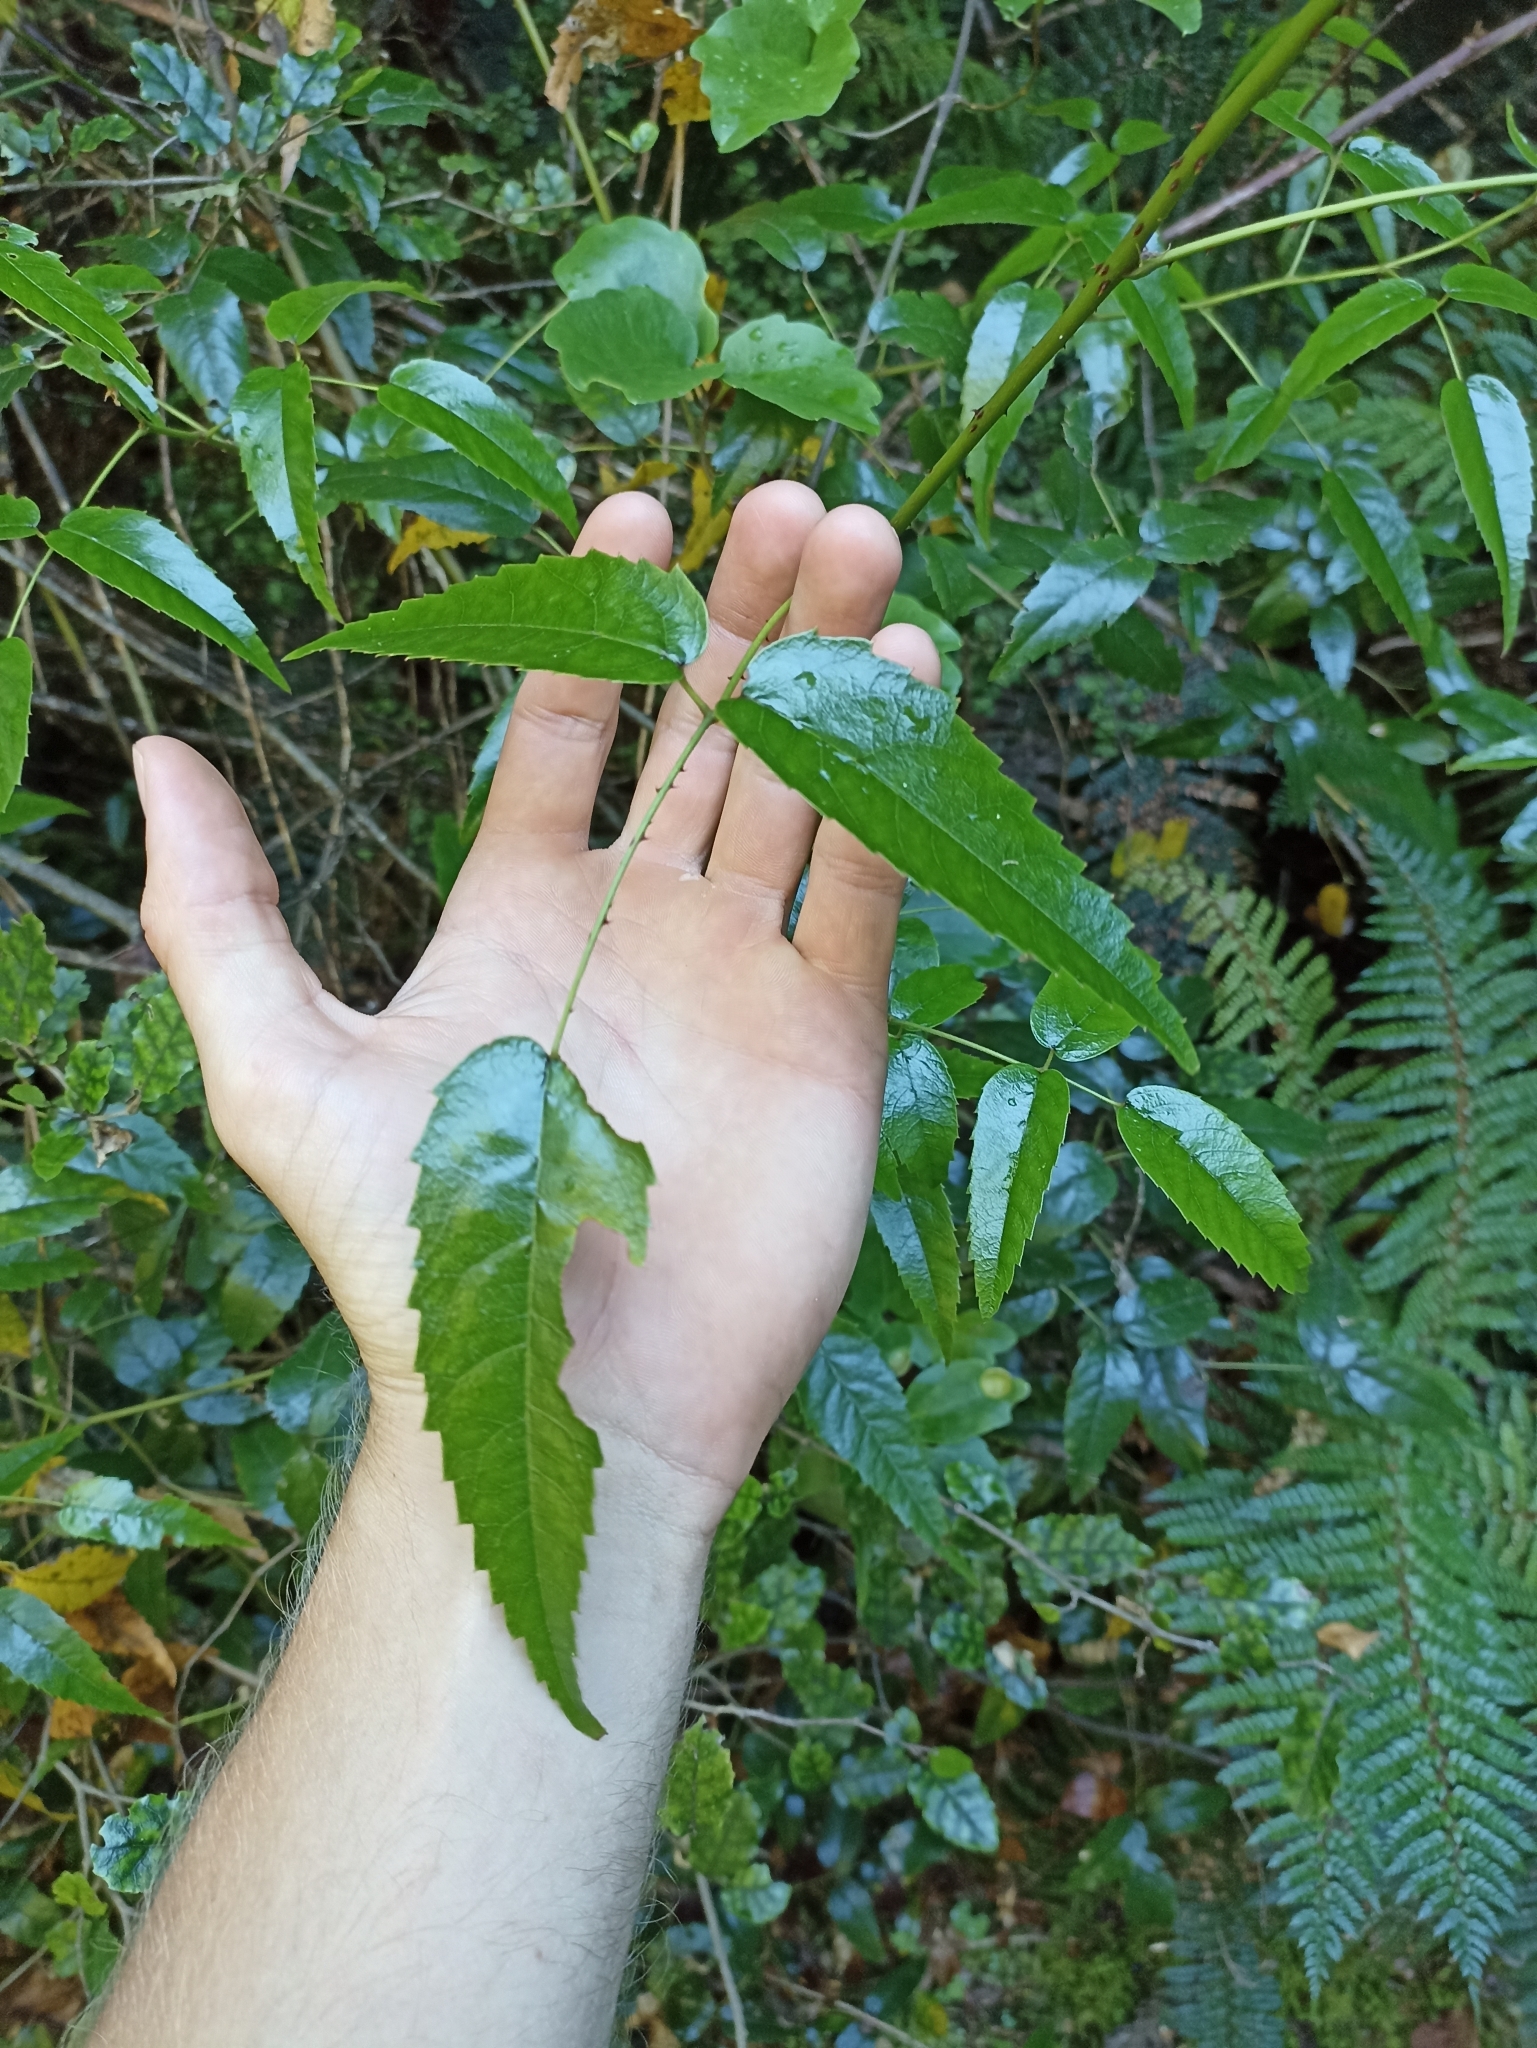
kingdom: Plantae
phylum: Tracheophyta
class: Magnoliopsida
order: Rosales
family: Rosaceae
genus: Rubus
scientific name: Rubus cissoides
